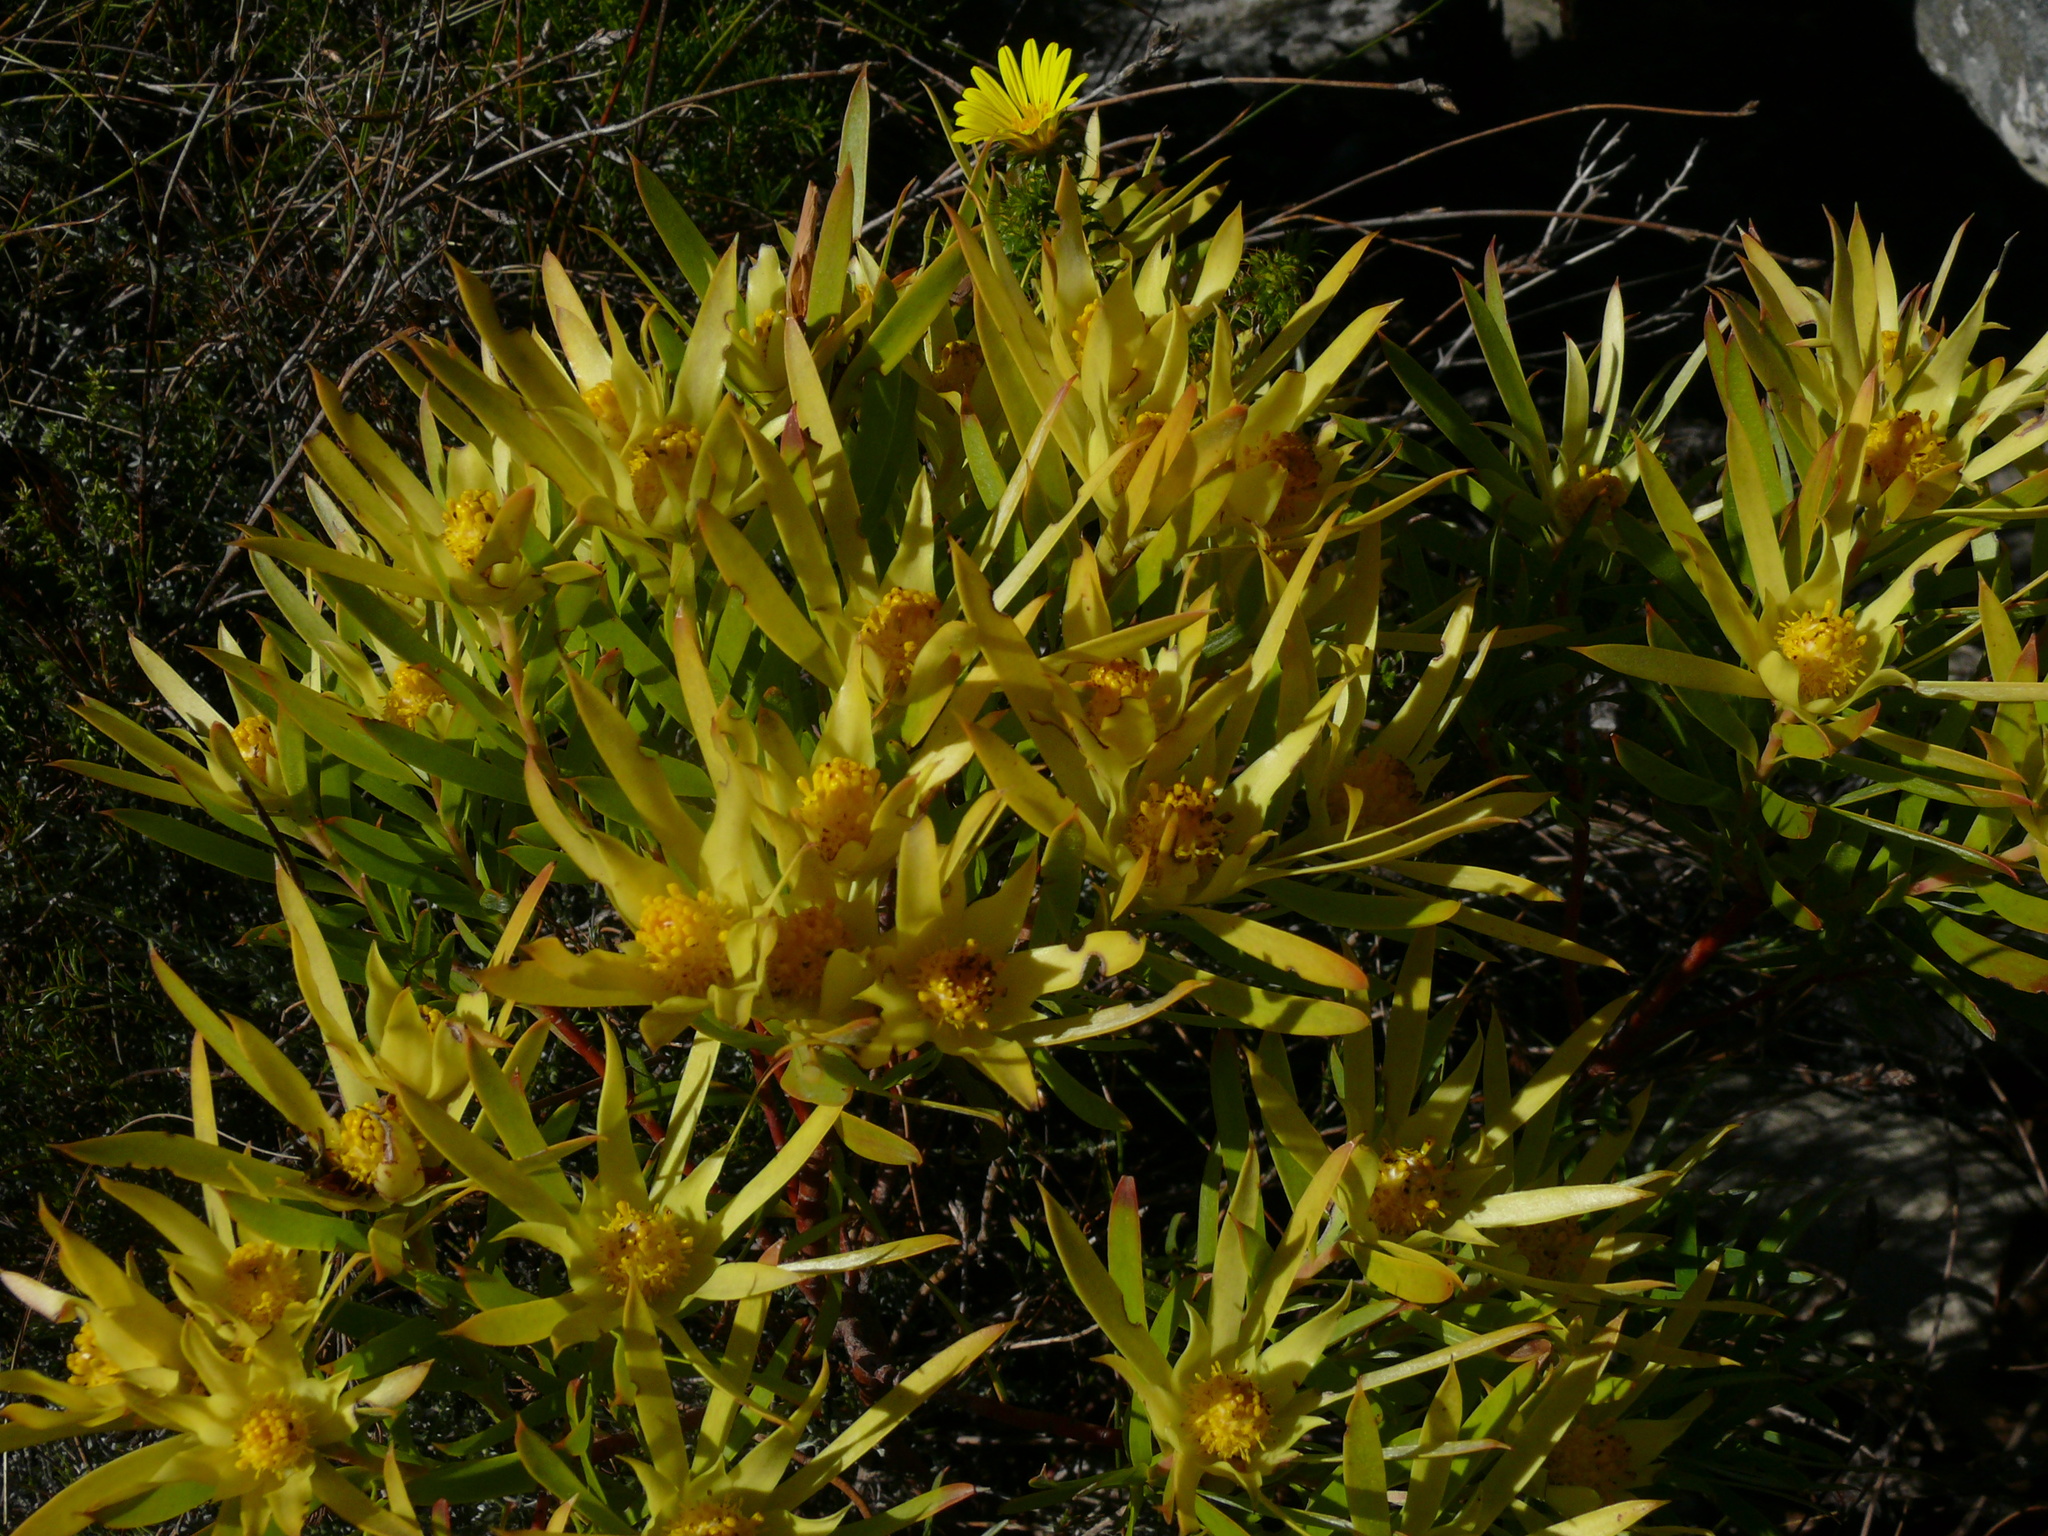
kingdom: Plantae
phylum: Tracheophyta
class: Magnoliopsida
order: Proteales
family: Proteaceae
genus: Leucadendron
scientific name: Leucadendron salignum
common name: Common sunshine conebush
